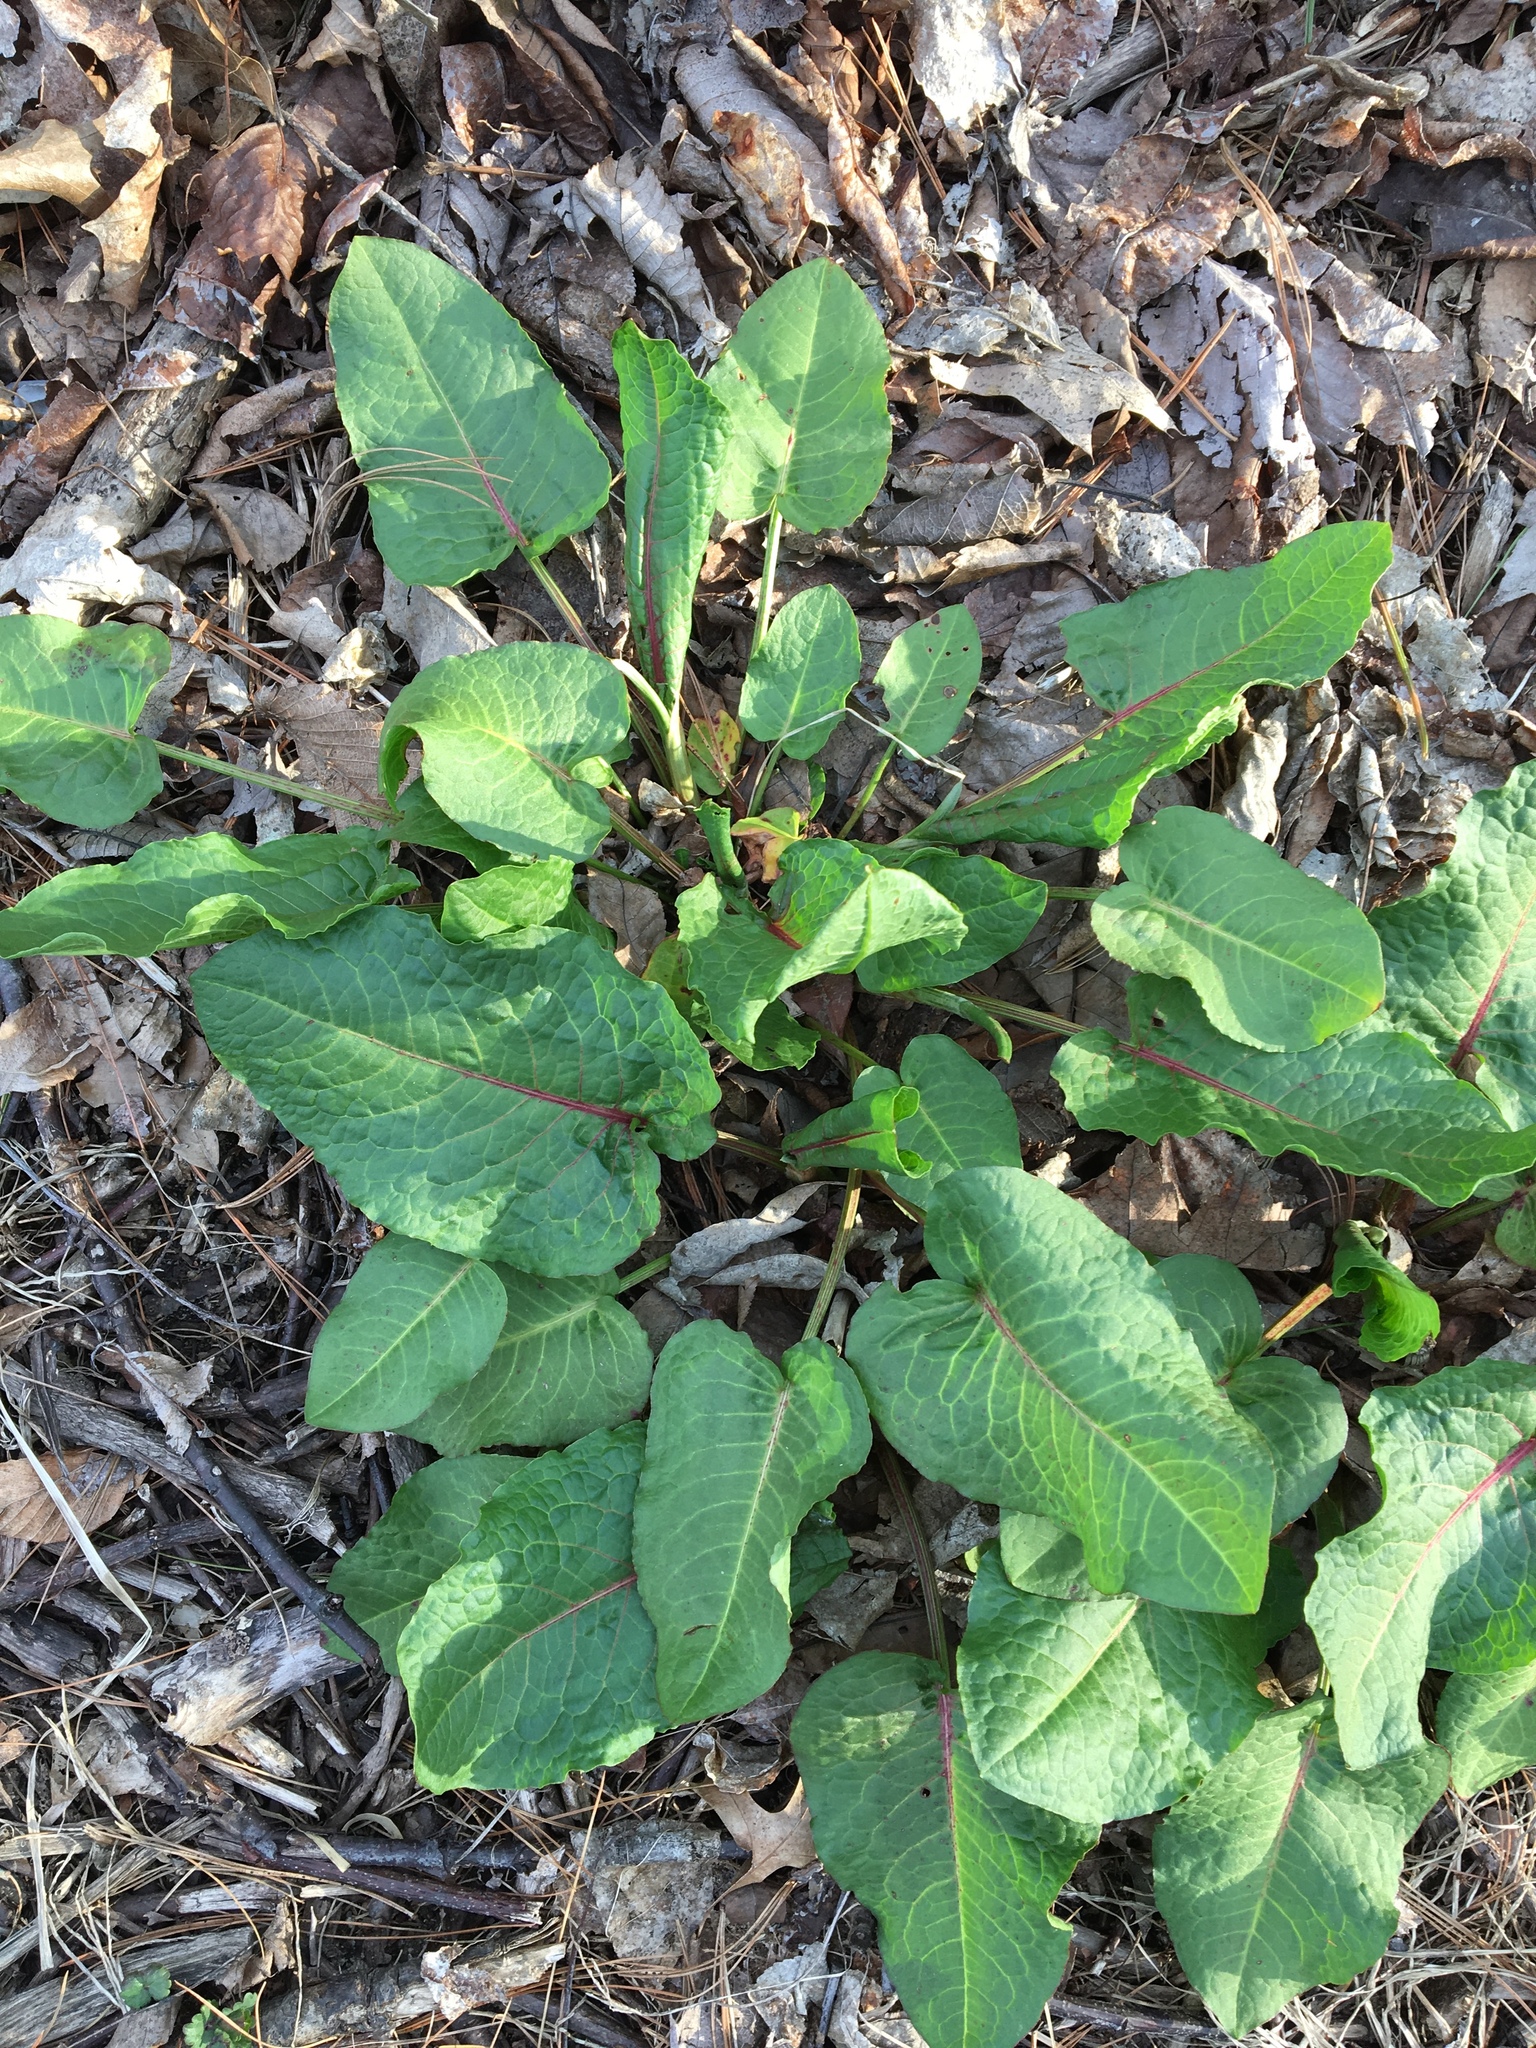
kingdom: Plantae
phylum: Tracheophyta
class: Magnoliopsida
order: Caryophyllales
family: Polygonaceae
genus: Rumex
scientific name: Rumex obtusifolius
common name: Bitter dock
